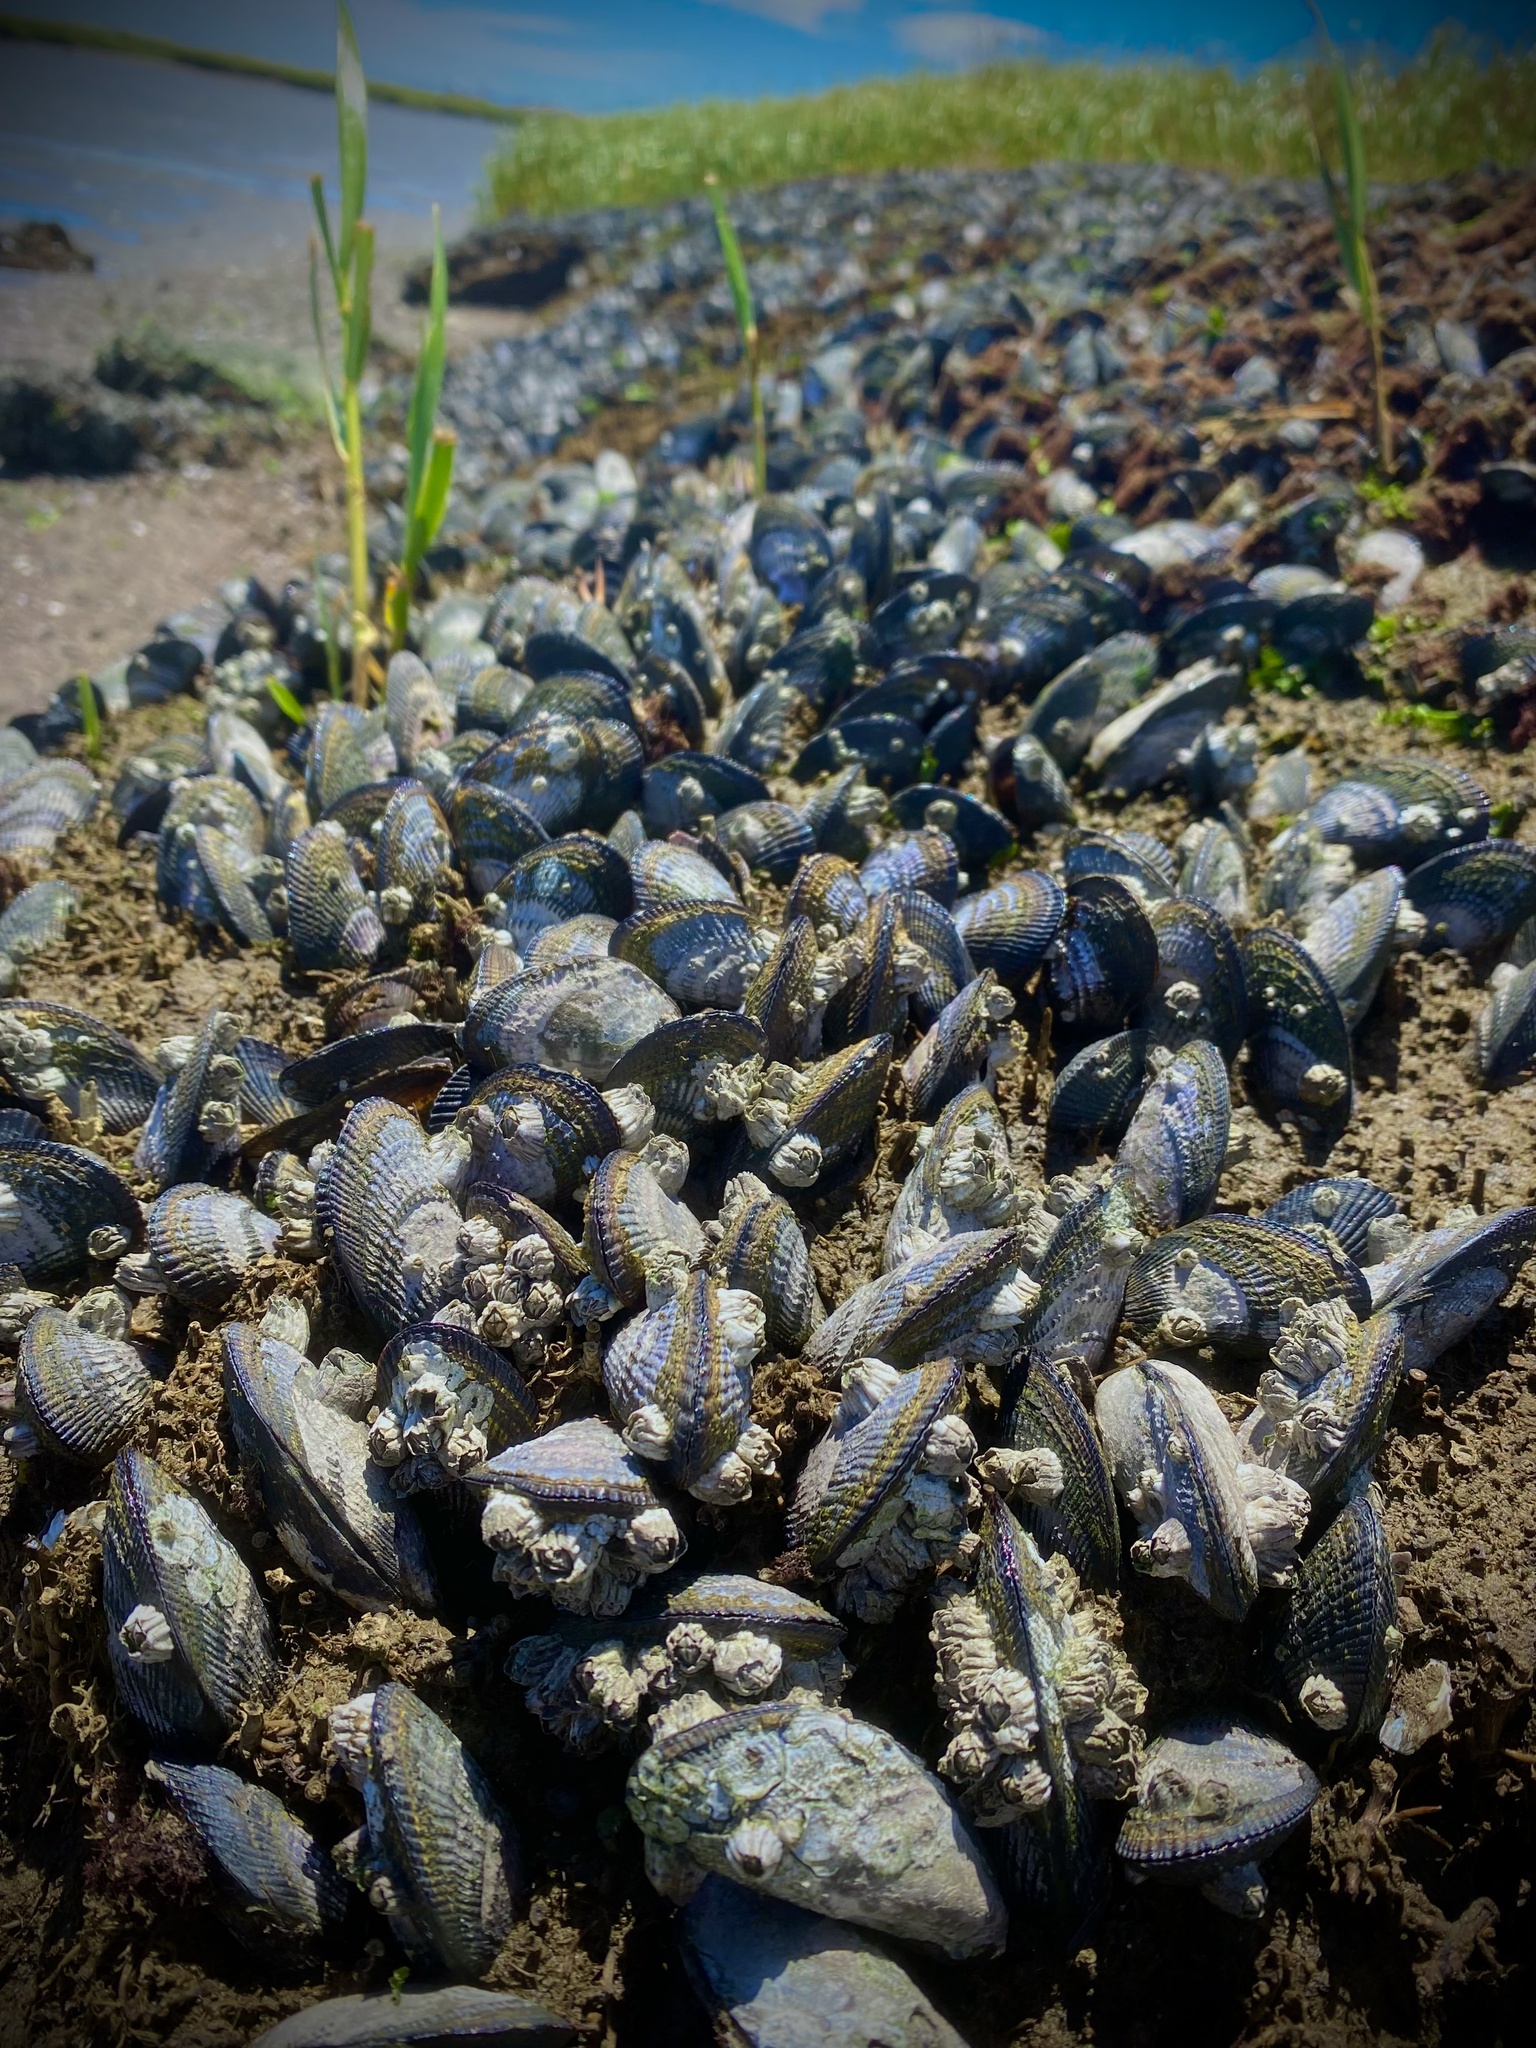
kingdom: Animalia
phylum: Mollusca
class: Bivalvia
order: Mytilida
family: Mytilidae
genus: Geukensia
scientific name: Geukensia demissa
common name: Ribbed mussel
